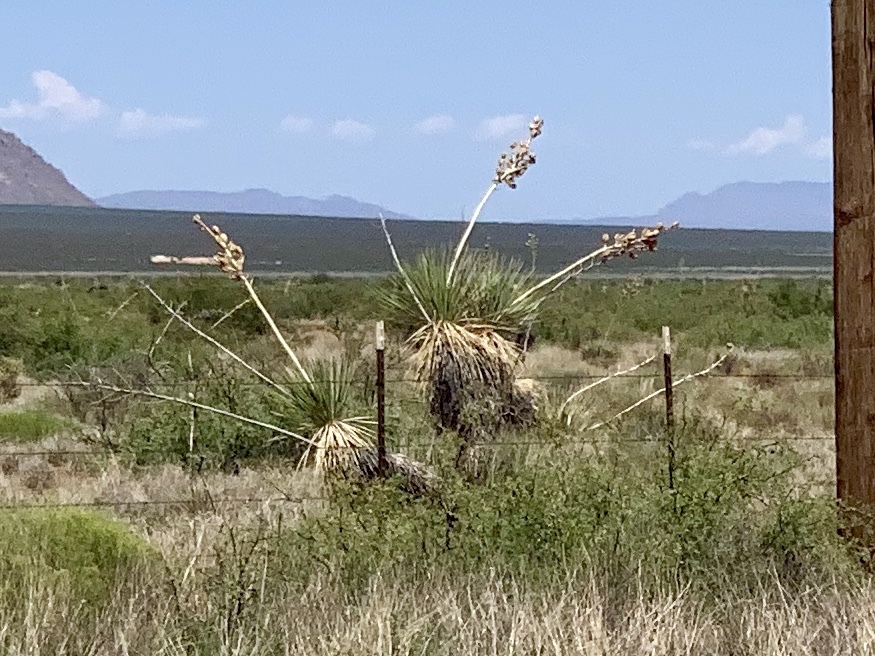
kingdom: Plantae
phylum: Tracheophyta
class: Liliopsida
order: Asparagales
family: Asparagaceae
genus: Yucca
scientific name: Yucca elata
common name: Palmella
